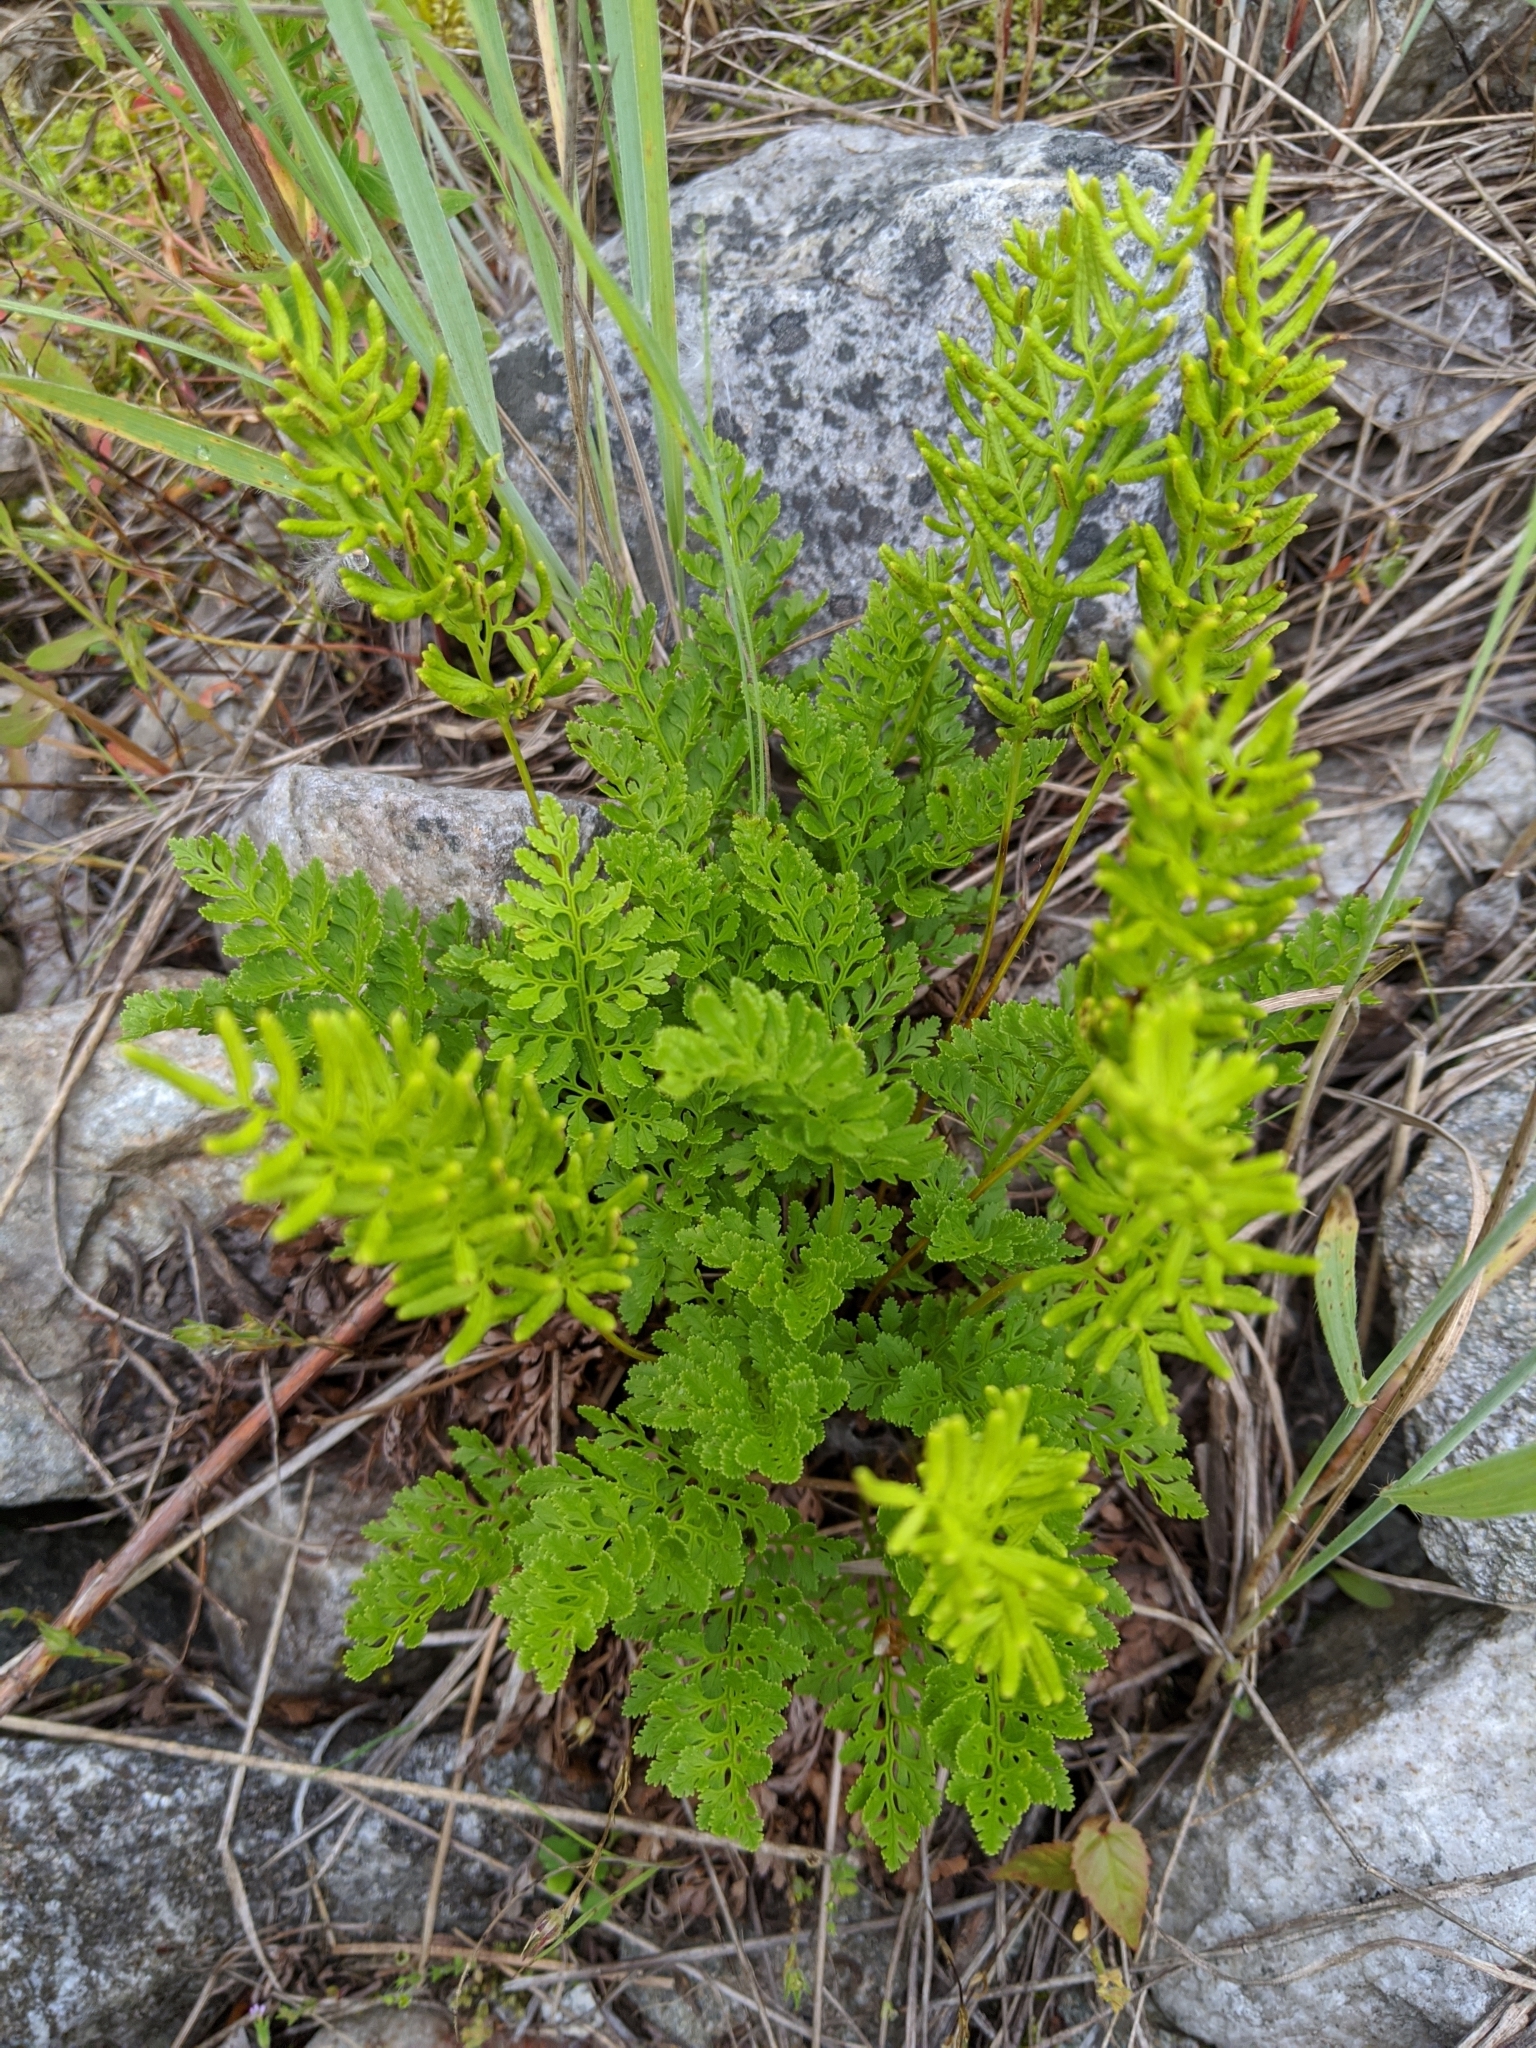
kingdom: Plantae
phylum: Tracheophyta
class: Polypodiopsida
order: Polypodiales
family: Pteridaceae
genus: Cryptogramma
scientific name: Cryptogramma acrostichoides
